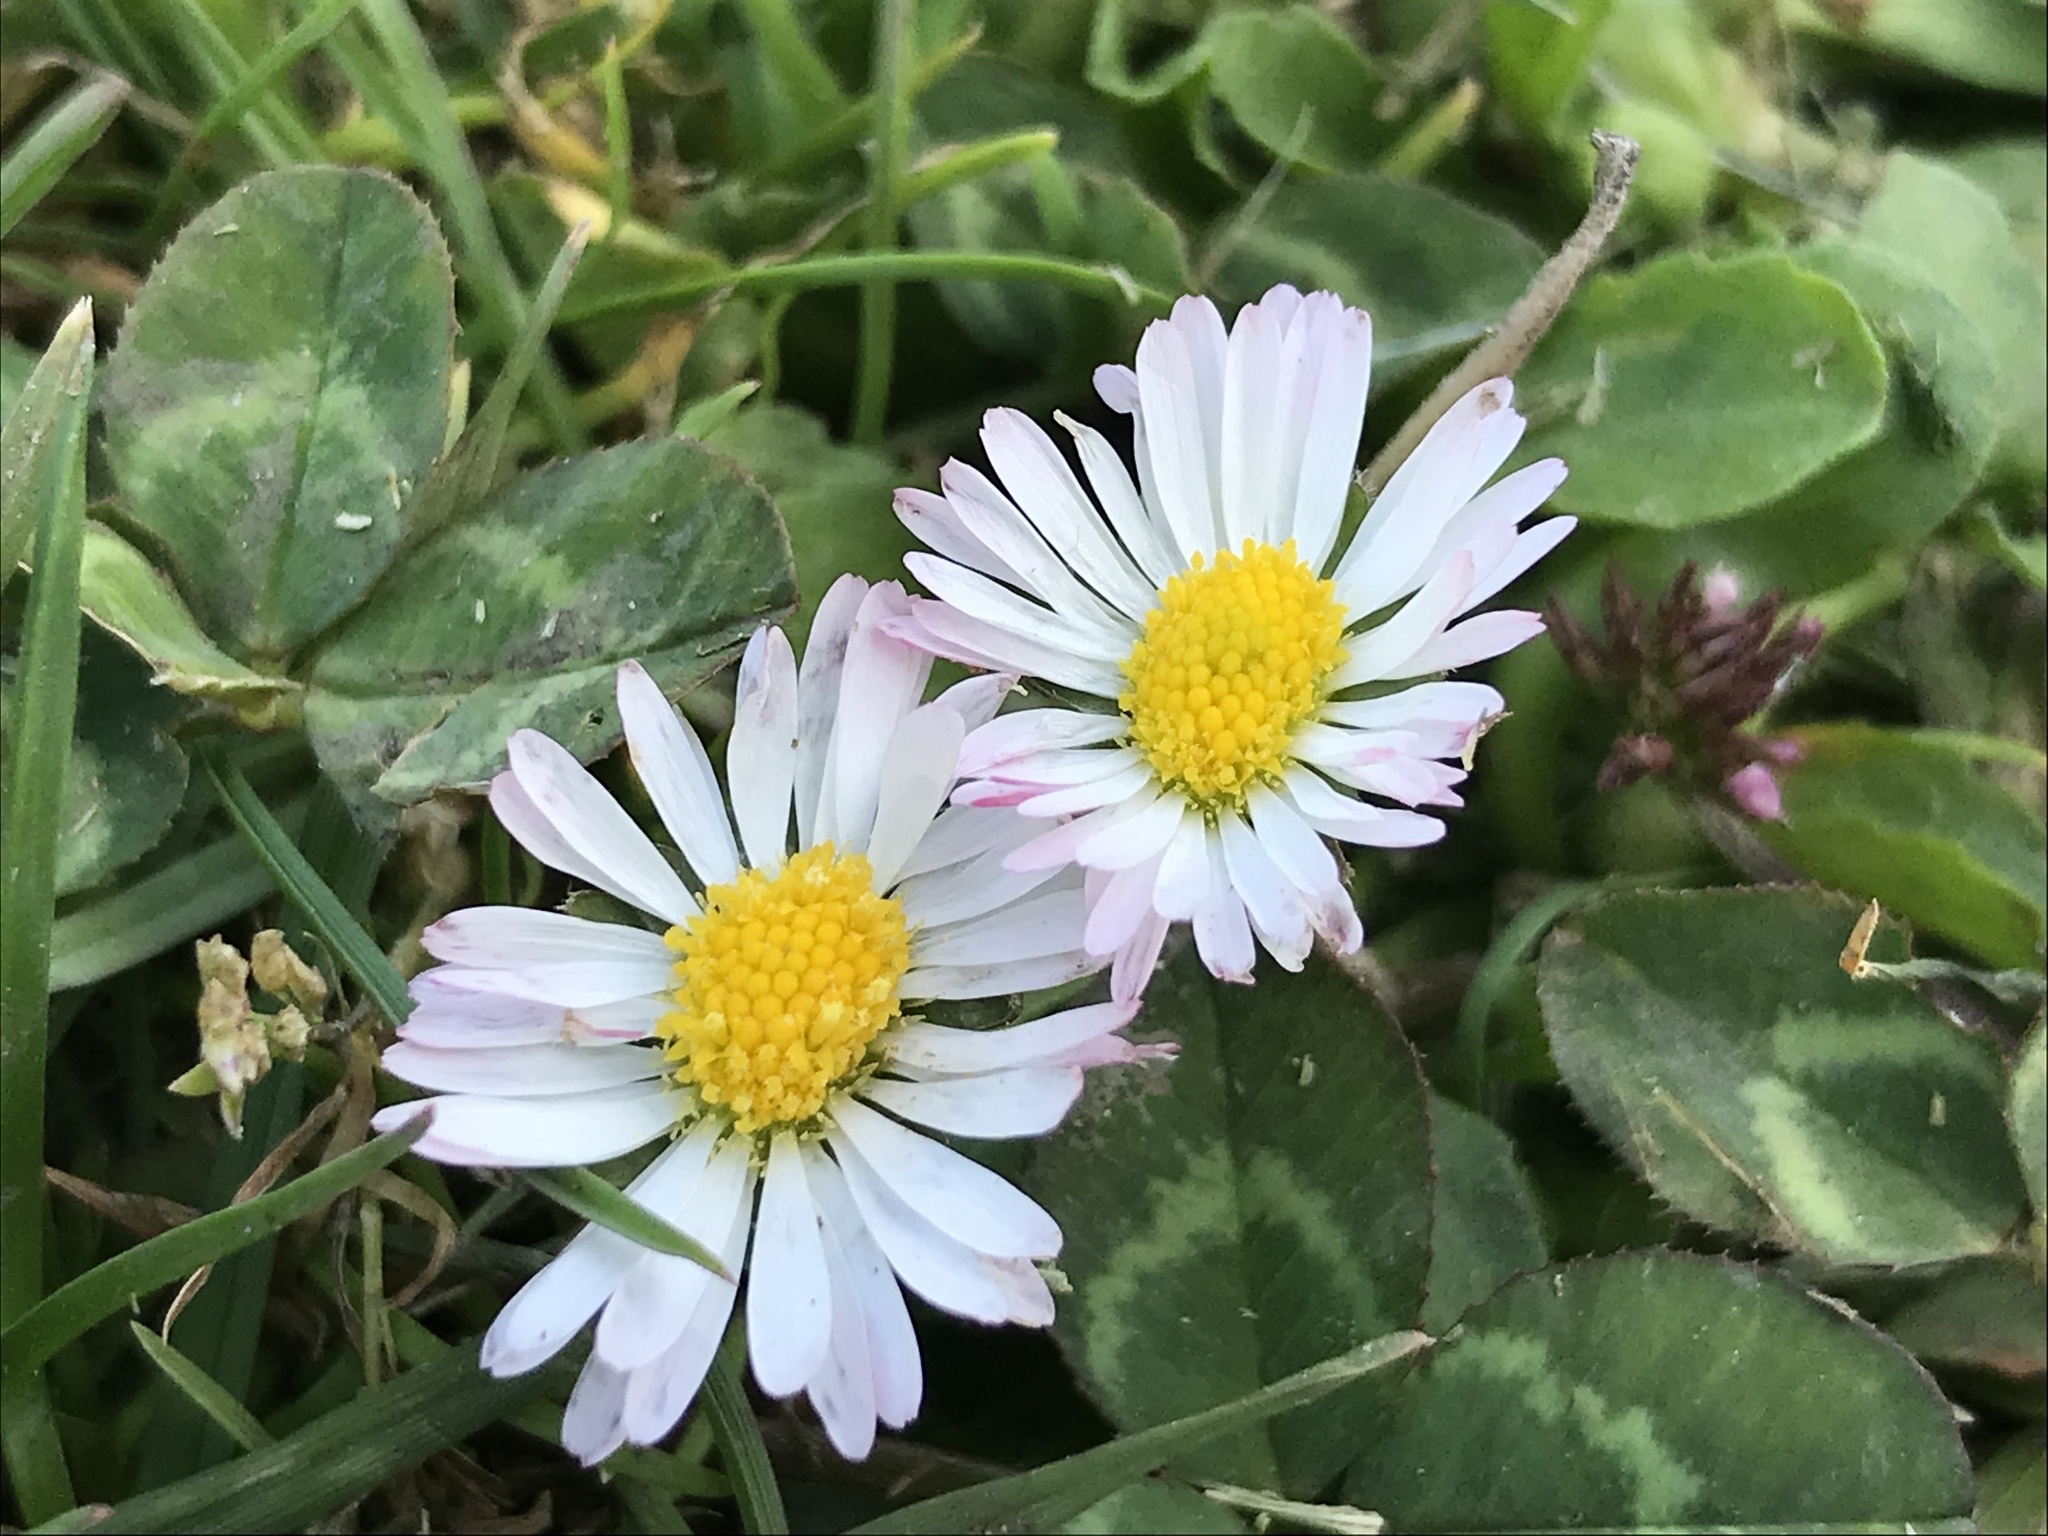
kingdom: Plantae
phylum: Tracheophyta
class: Magnoliopsida
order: Asterales
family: Asteraceae
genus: Bellis
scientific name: Bellis perennis
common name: Lawndaisy
